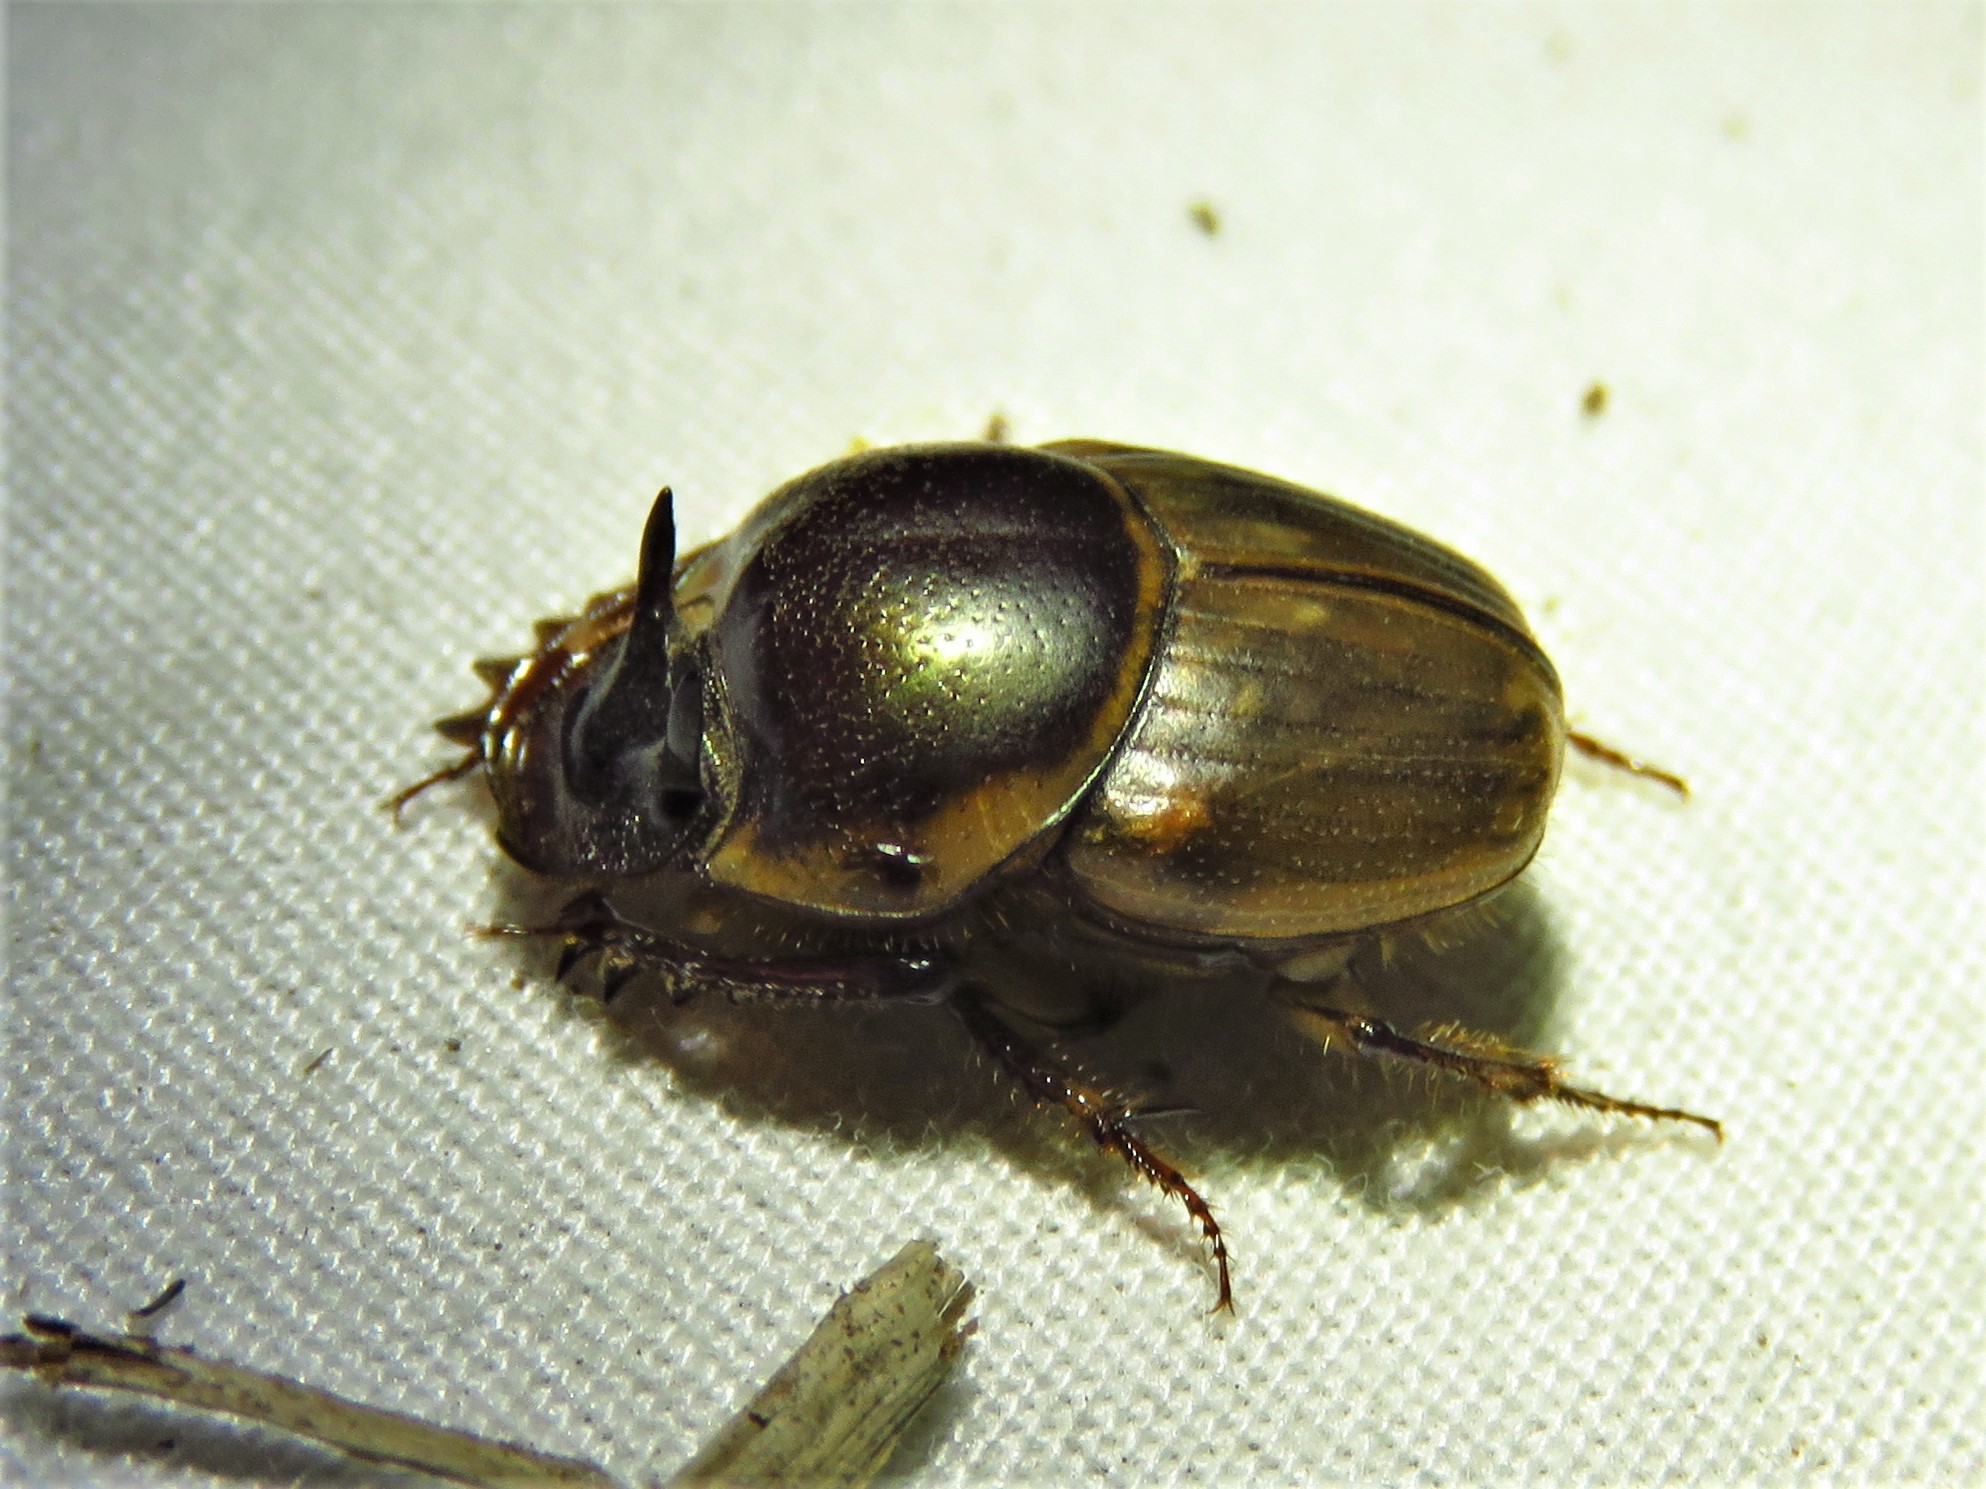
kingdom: Animalia
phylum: Arthropoda
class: Insecta
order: Coleoptera
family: Scarabaeidae
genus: Digitonthophagus
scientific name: Digitonthophagus gazella
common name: Brown dung beetle
